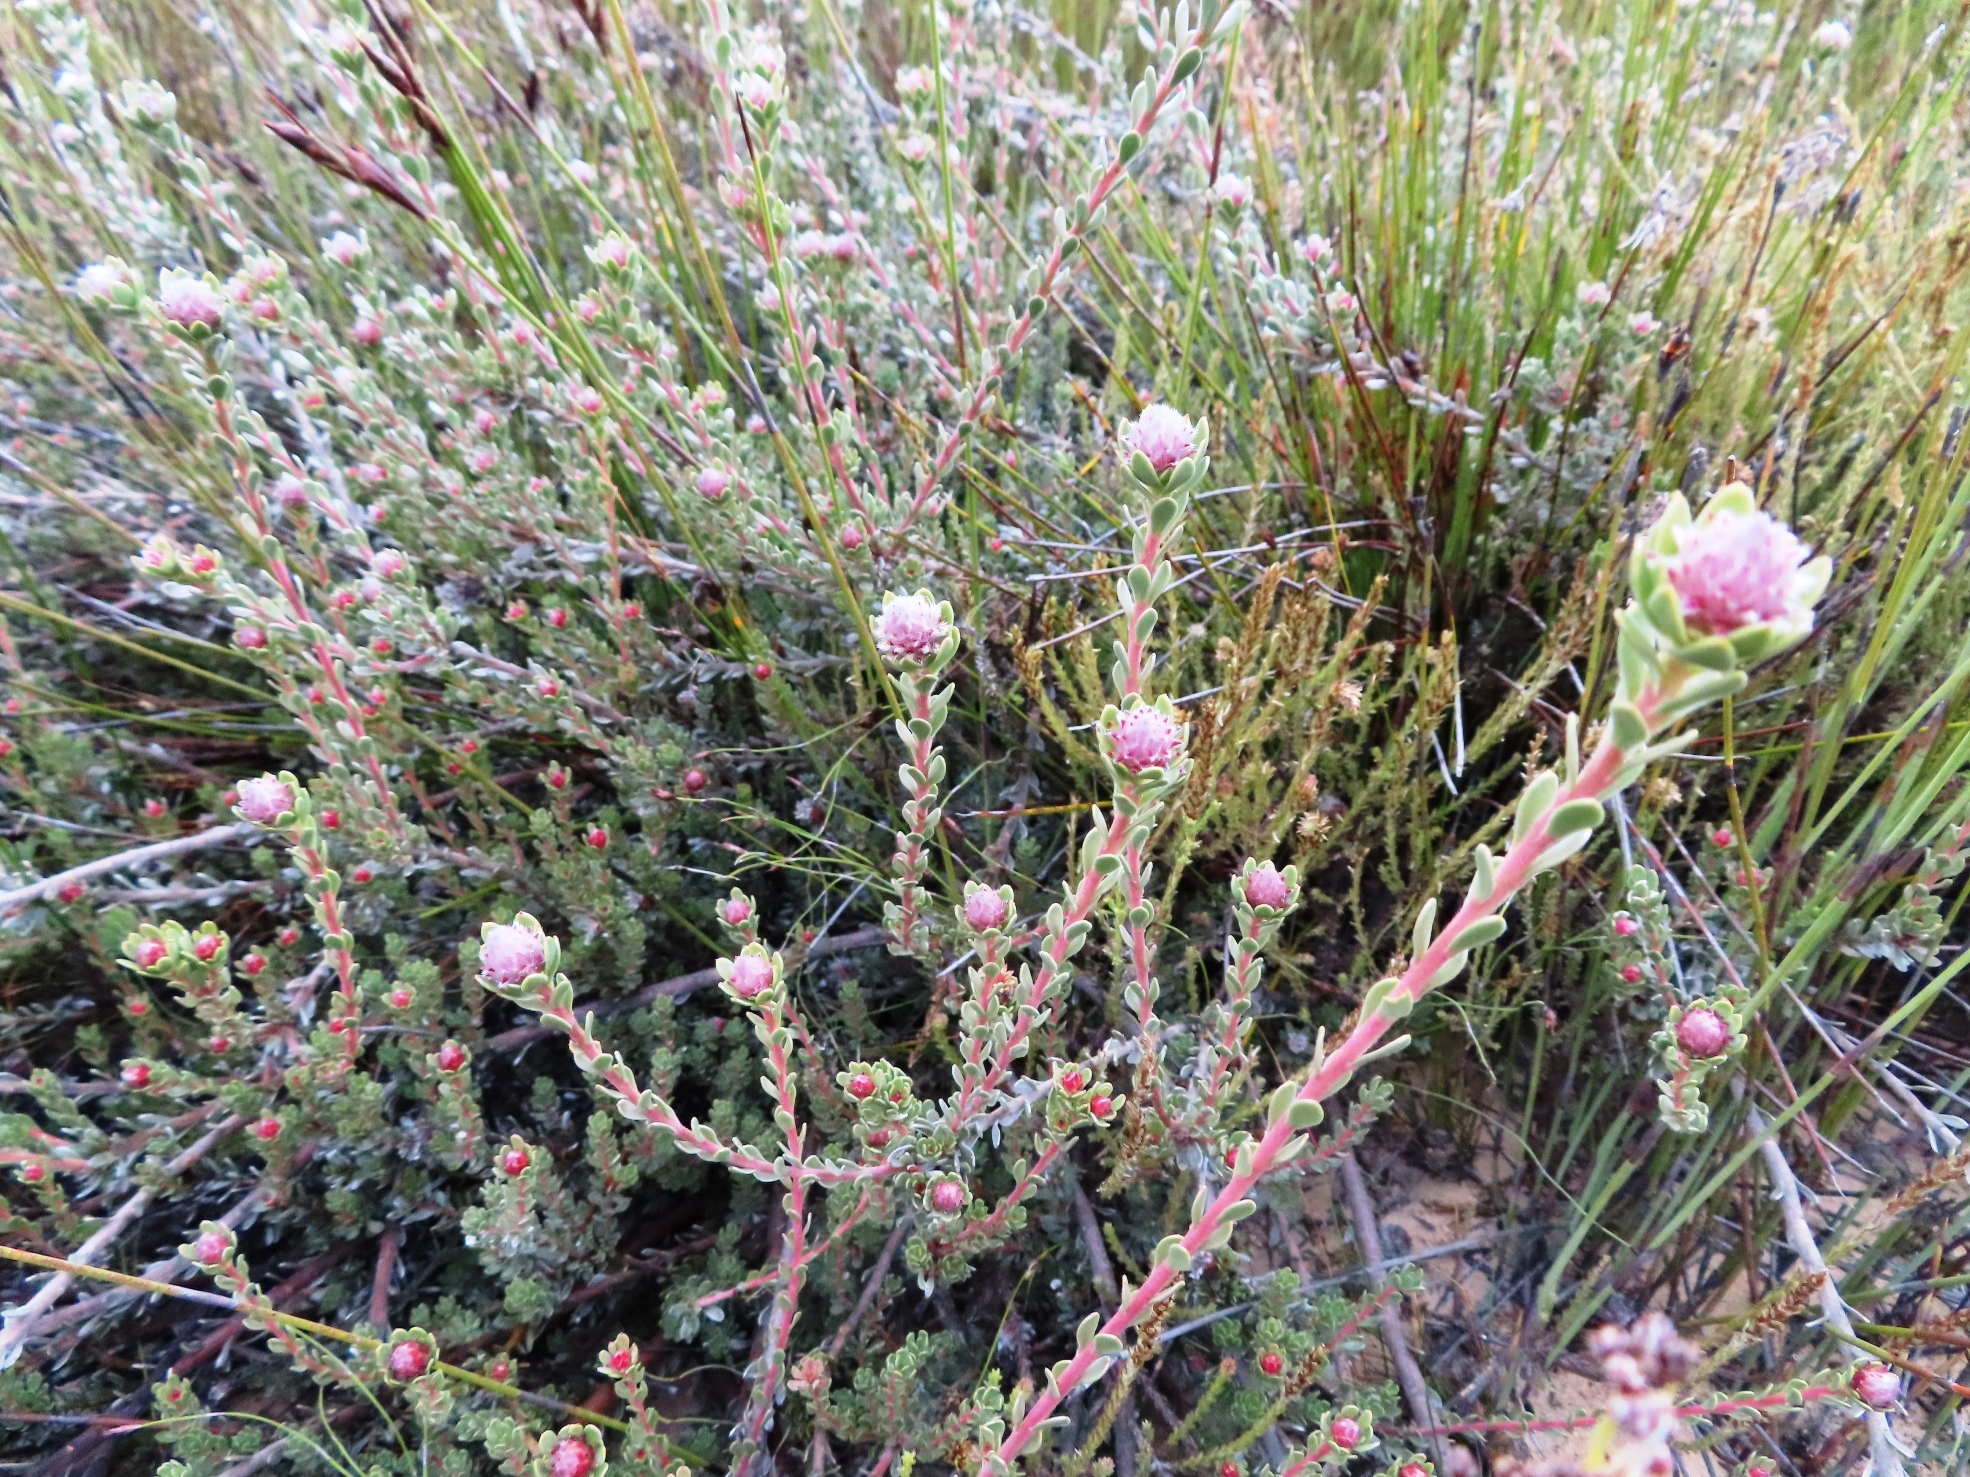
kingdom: Plantae
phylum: Tracheophyta
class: Magnoliopsida
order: Proteales
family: Proteaceae
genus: Leucadendron
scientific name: Leucadendron nitidum
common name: Bokkeveld conebush
